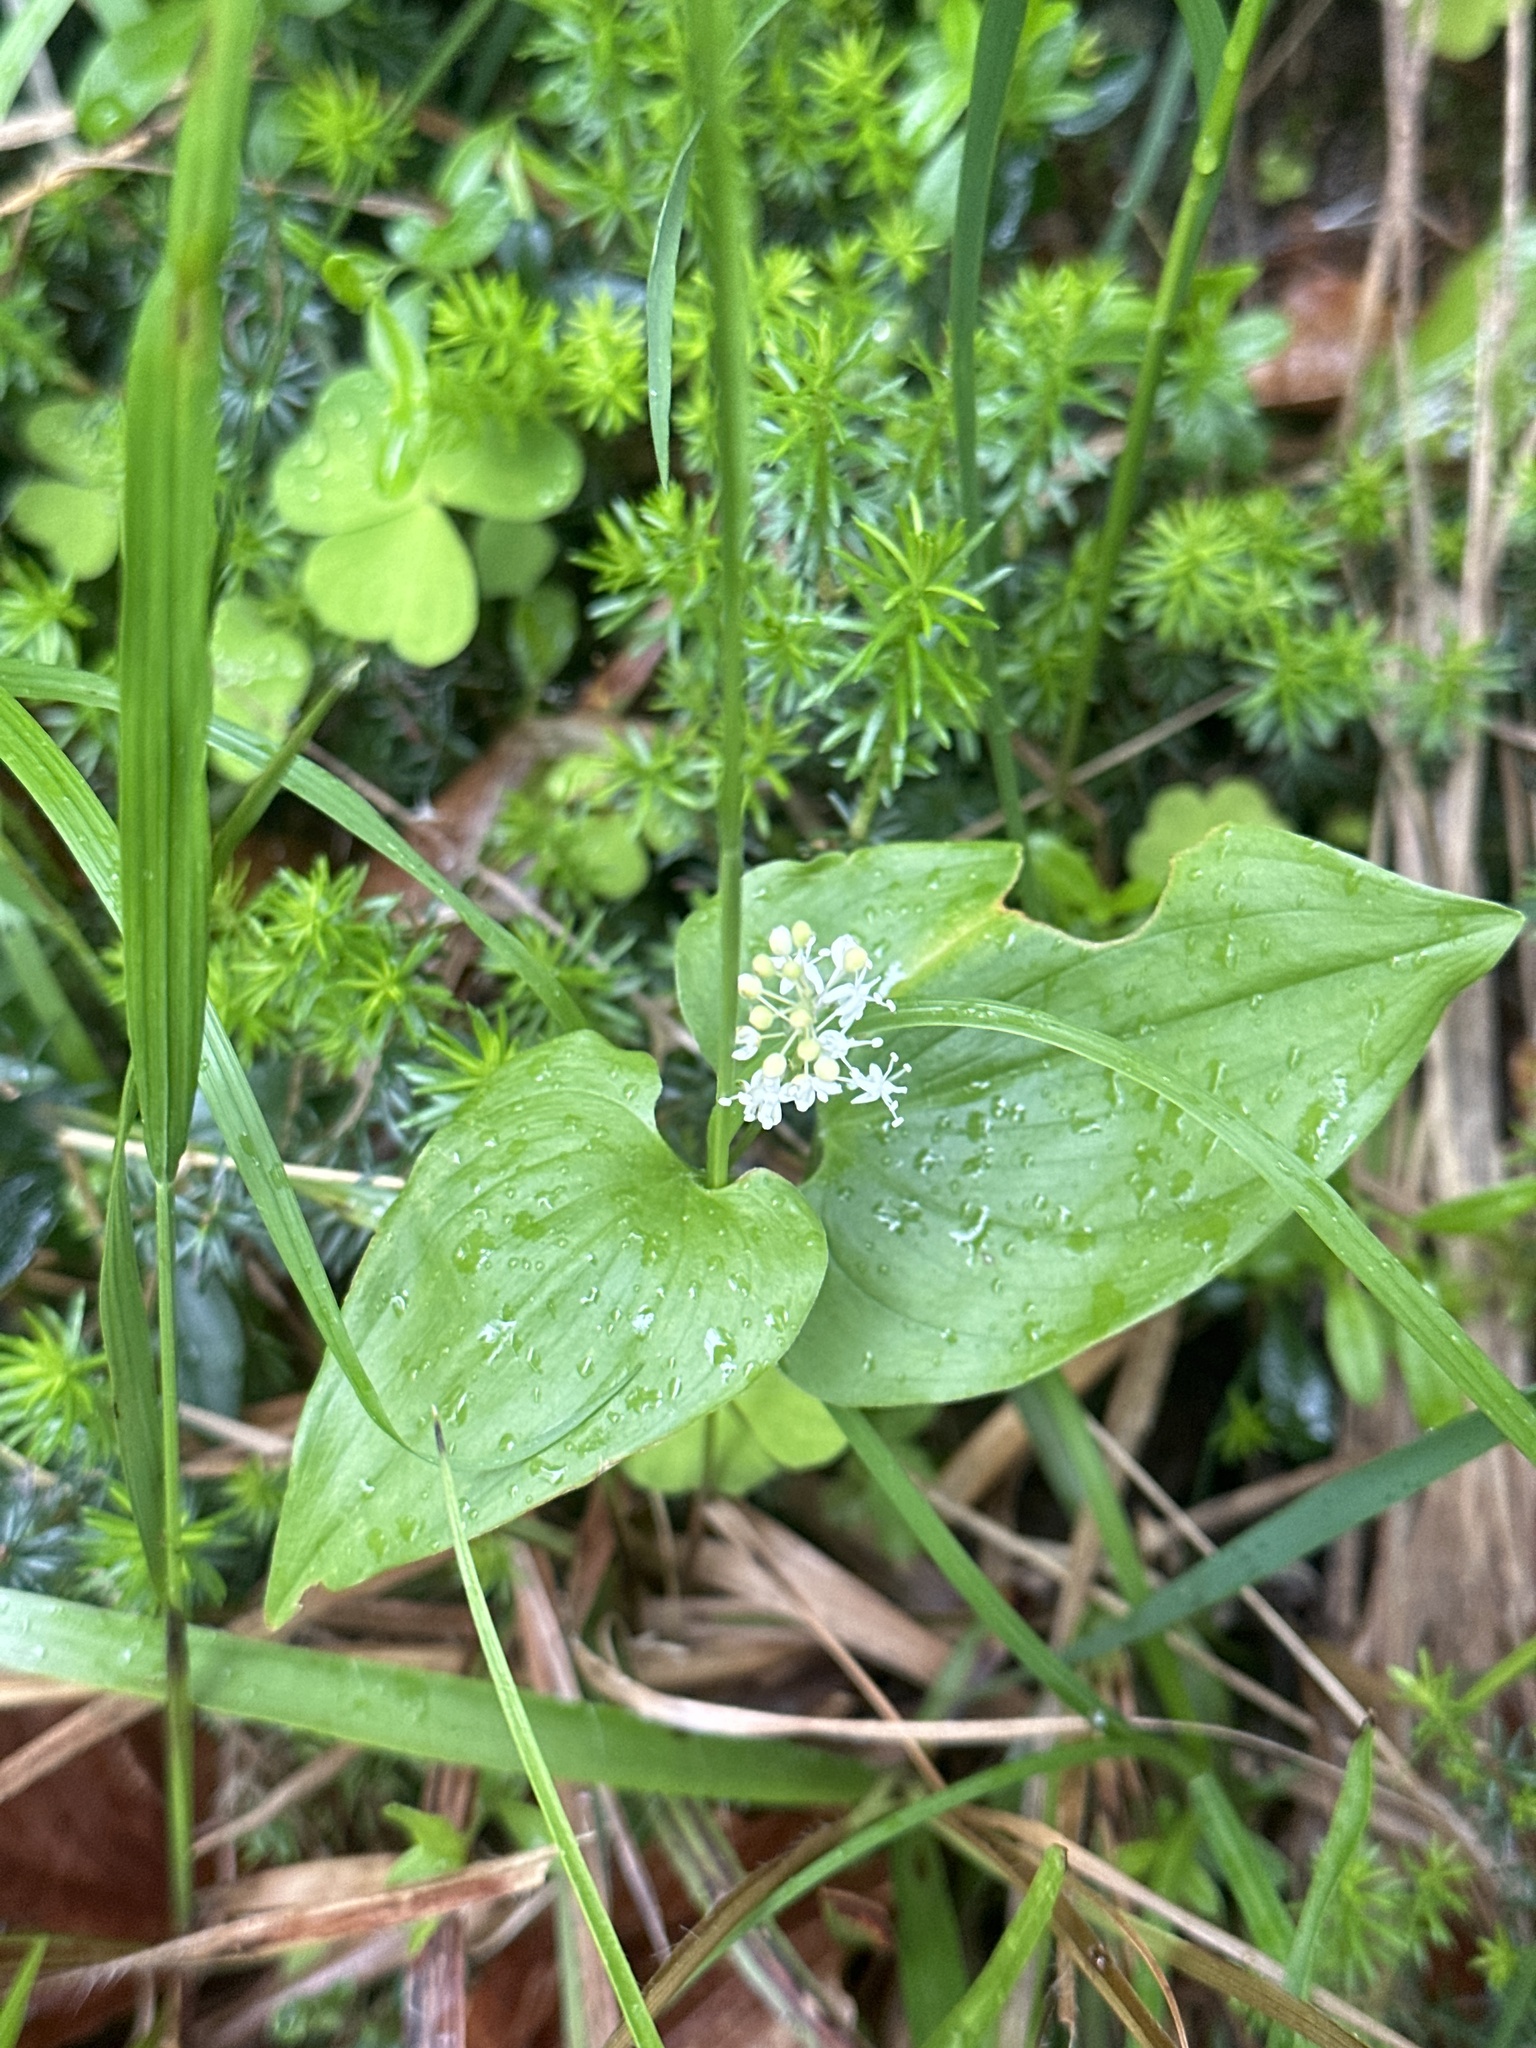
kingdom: Plantae
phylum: Tracheophyta
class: Liliopsida
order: Asparagales
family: Asparagaceae
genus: Maianthemum
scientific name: Maianthemum bifolium
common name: May lily
